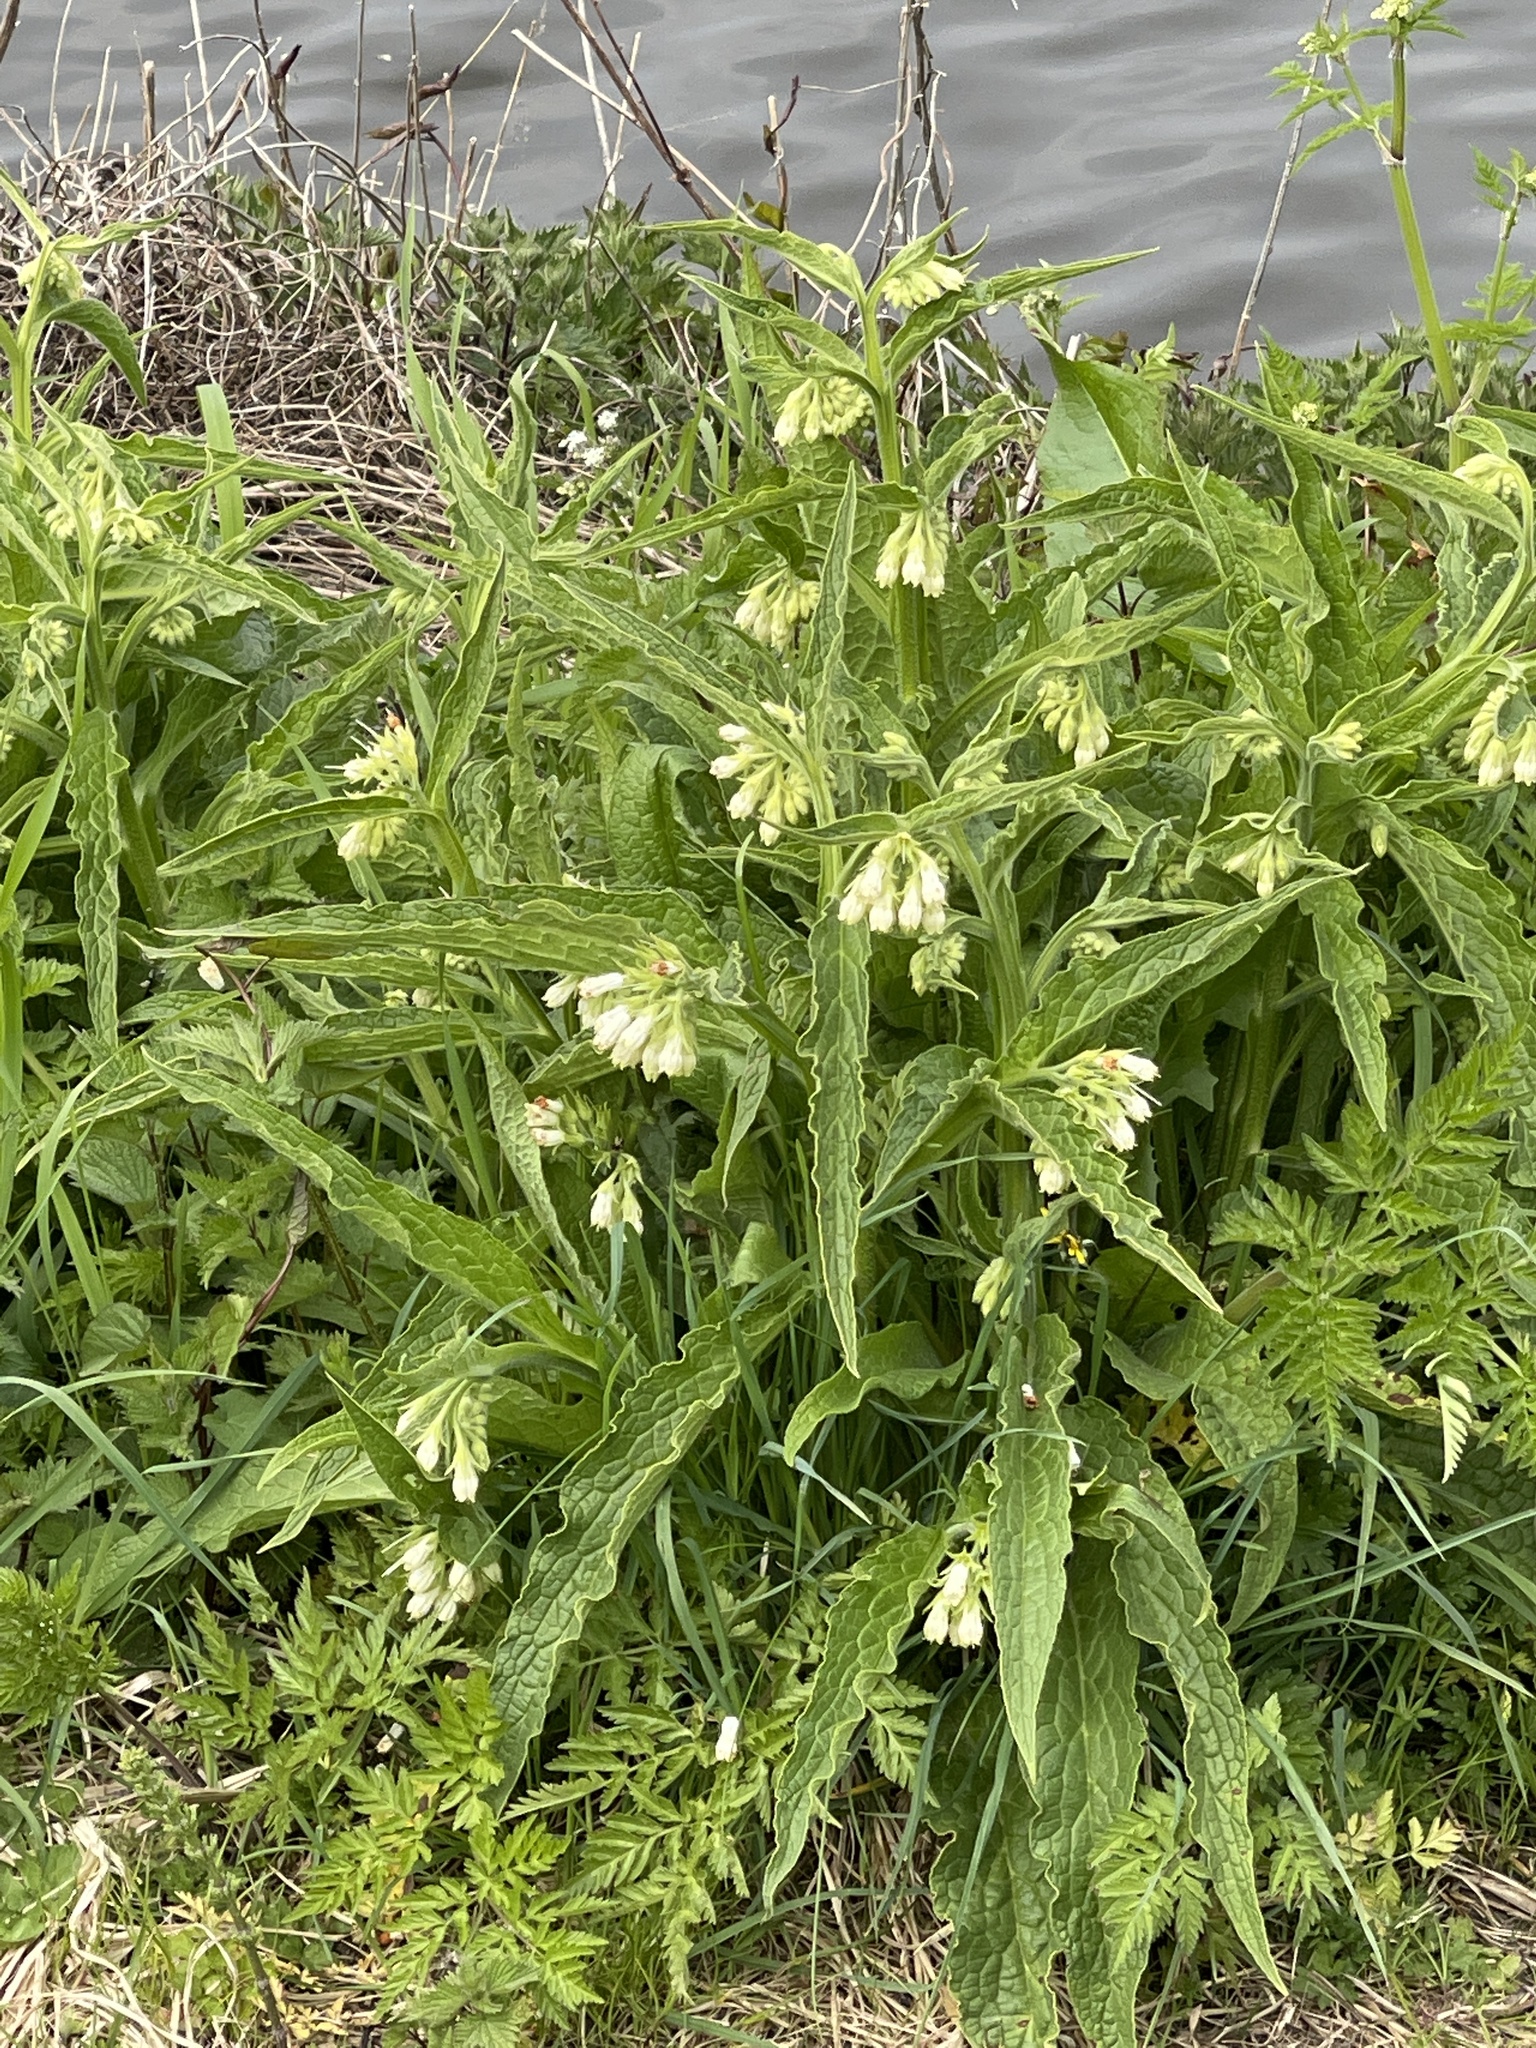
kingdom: Plantae
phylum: Tracheophyta
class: Magnoliopsida
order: Boraginales
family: Boraginaceae
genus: Symphytum
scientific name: Symphytum officinale
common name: Common comfrey
